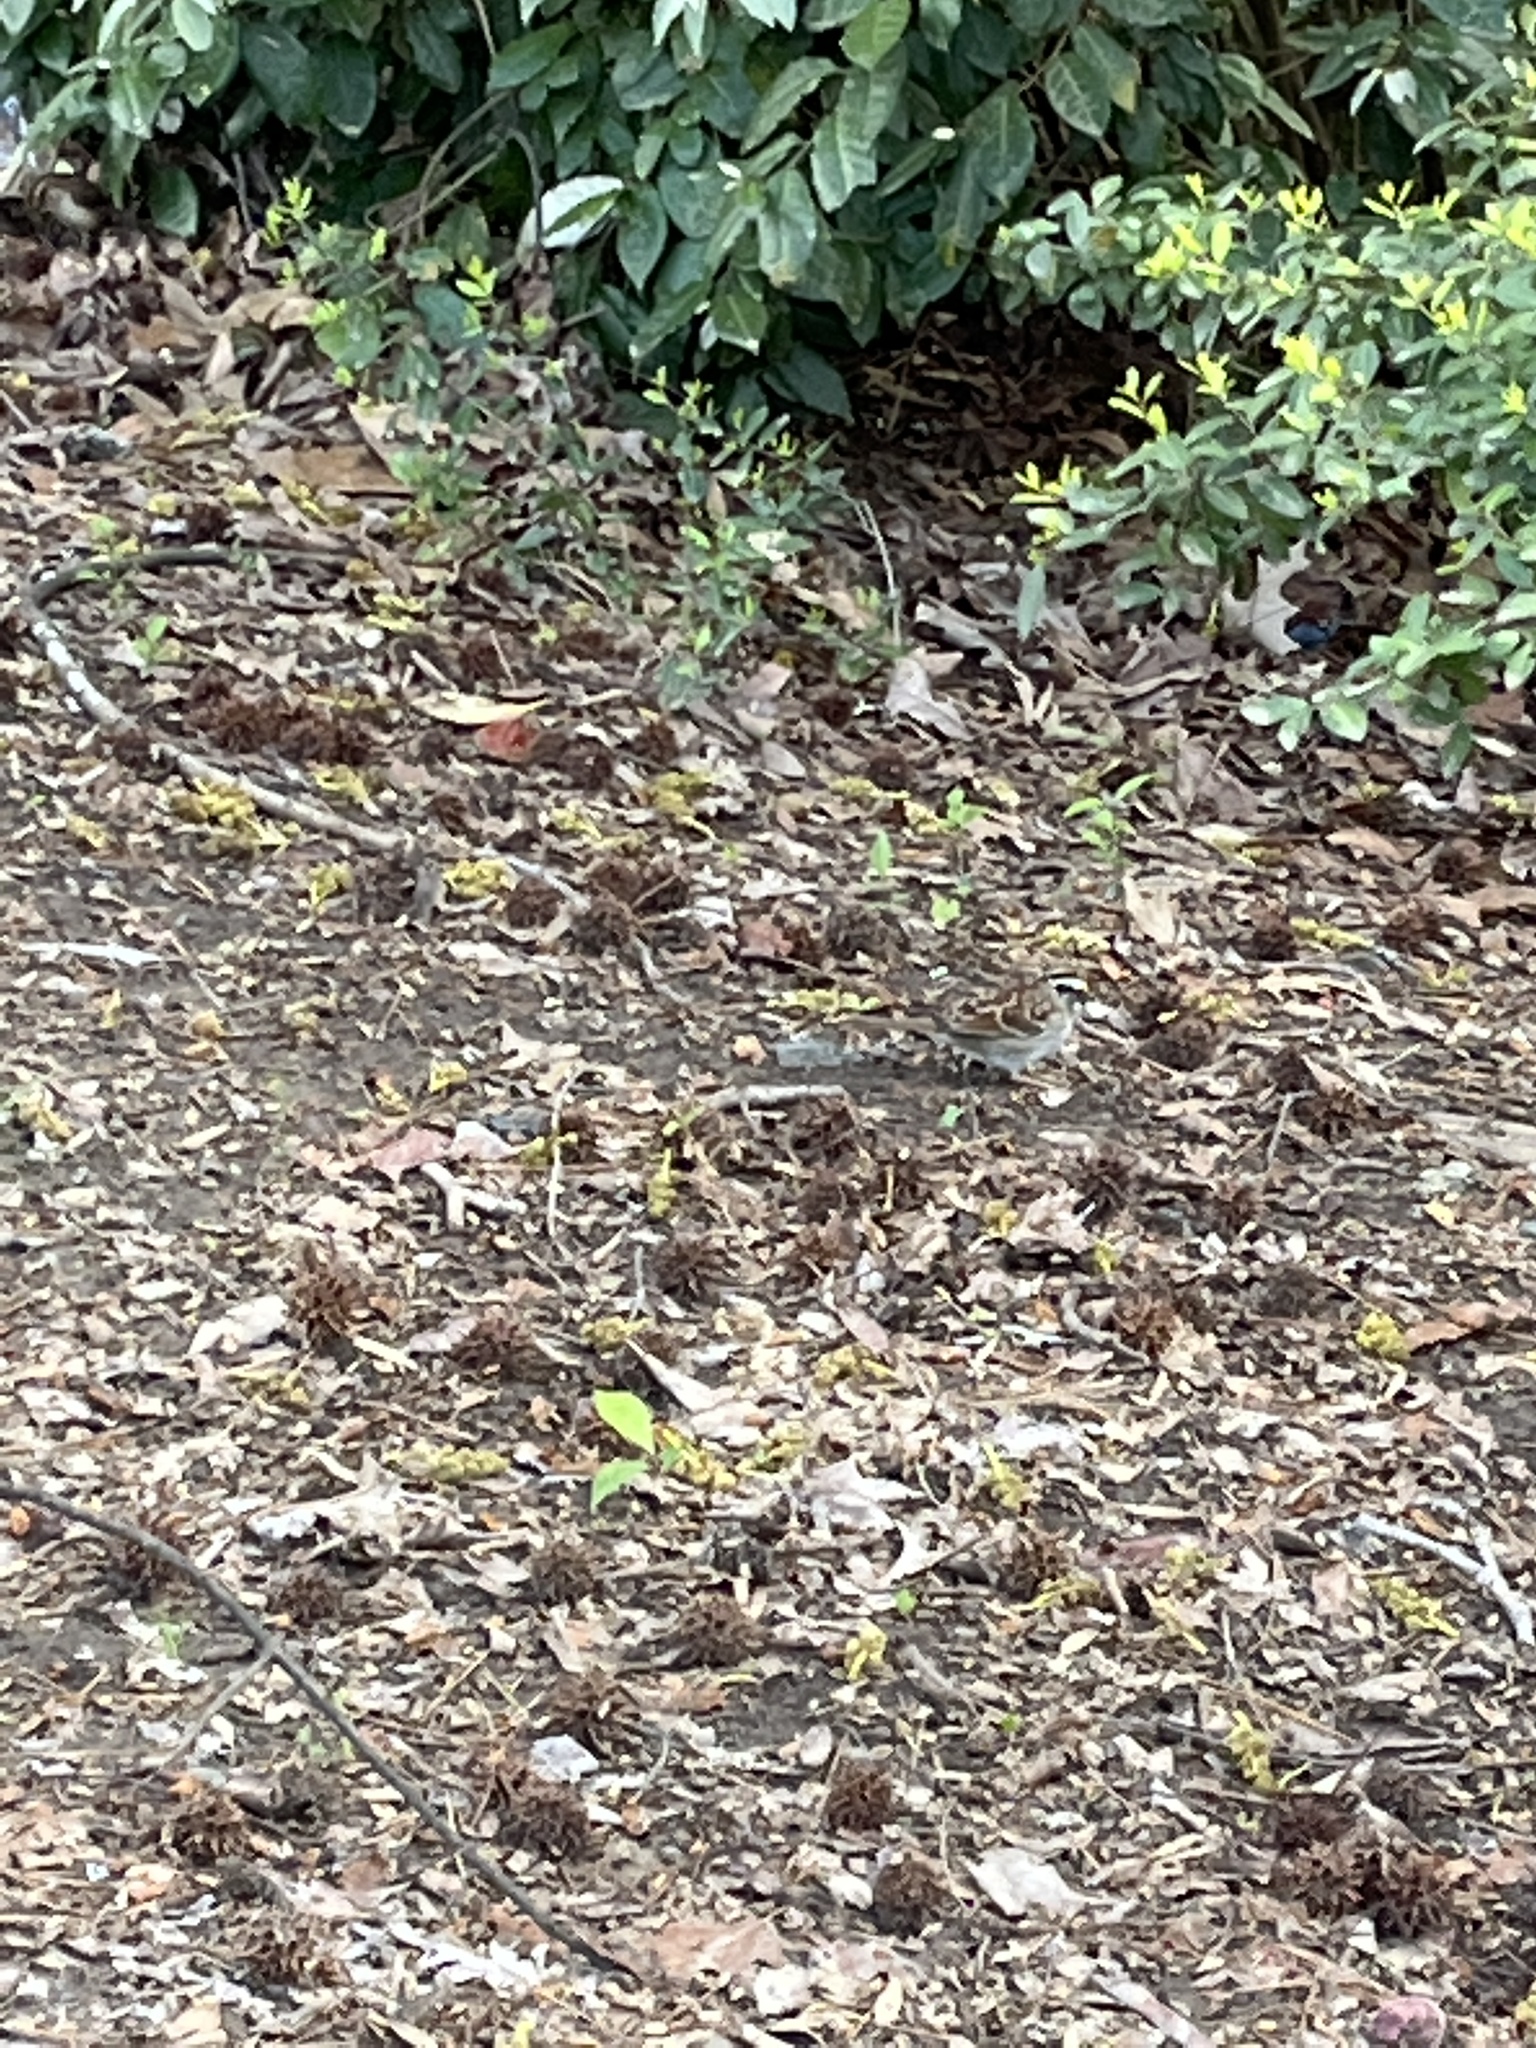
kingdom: Animalia
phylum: Chordata
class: Aves
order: Passeriformes
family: Passerellidae
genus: Zonotrichia
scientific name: Zonotrichia albicollis
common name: White-throated sparrow
